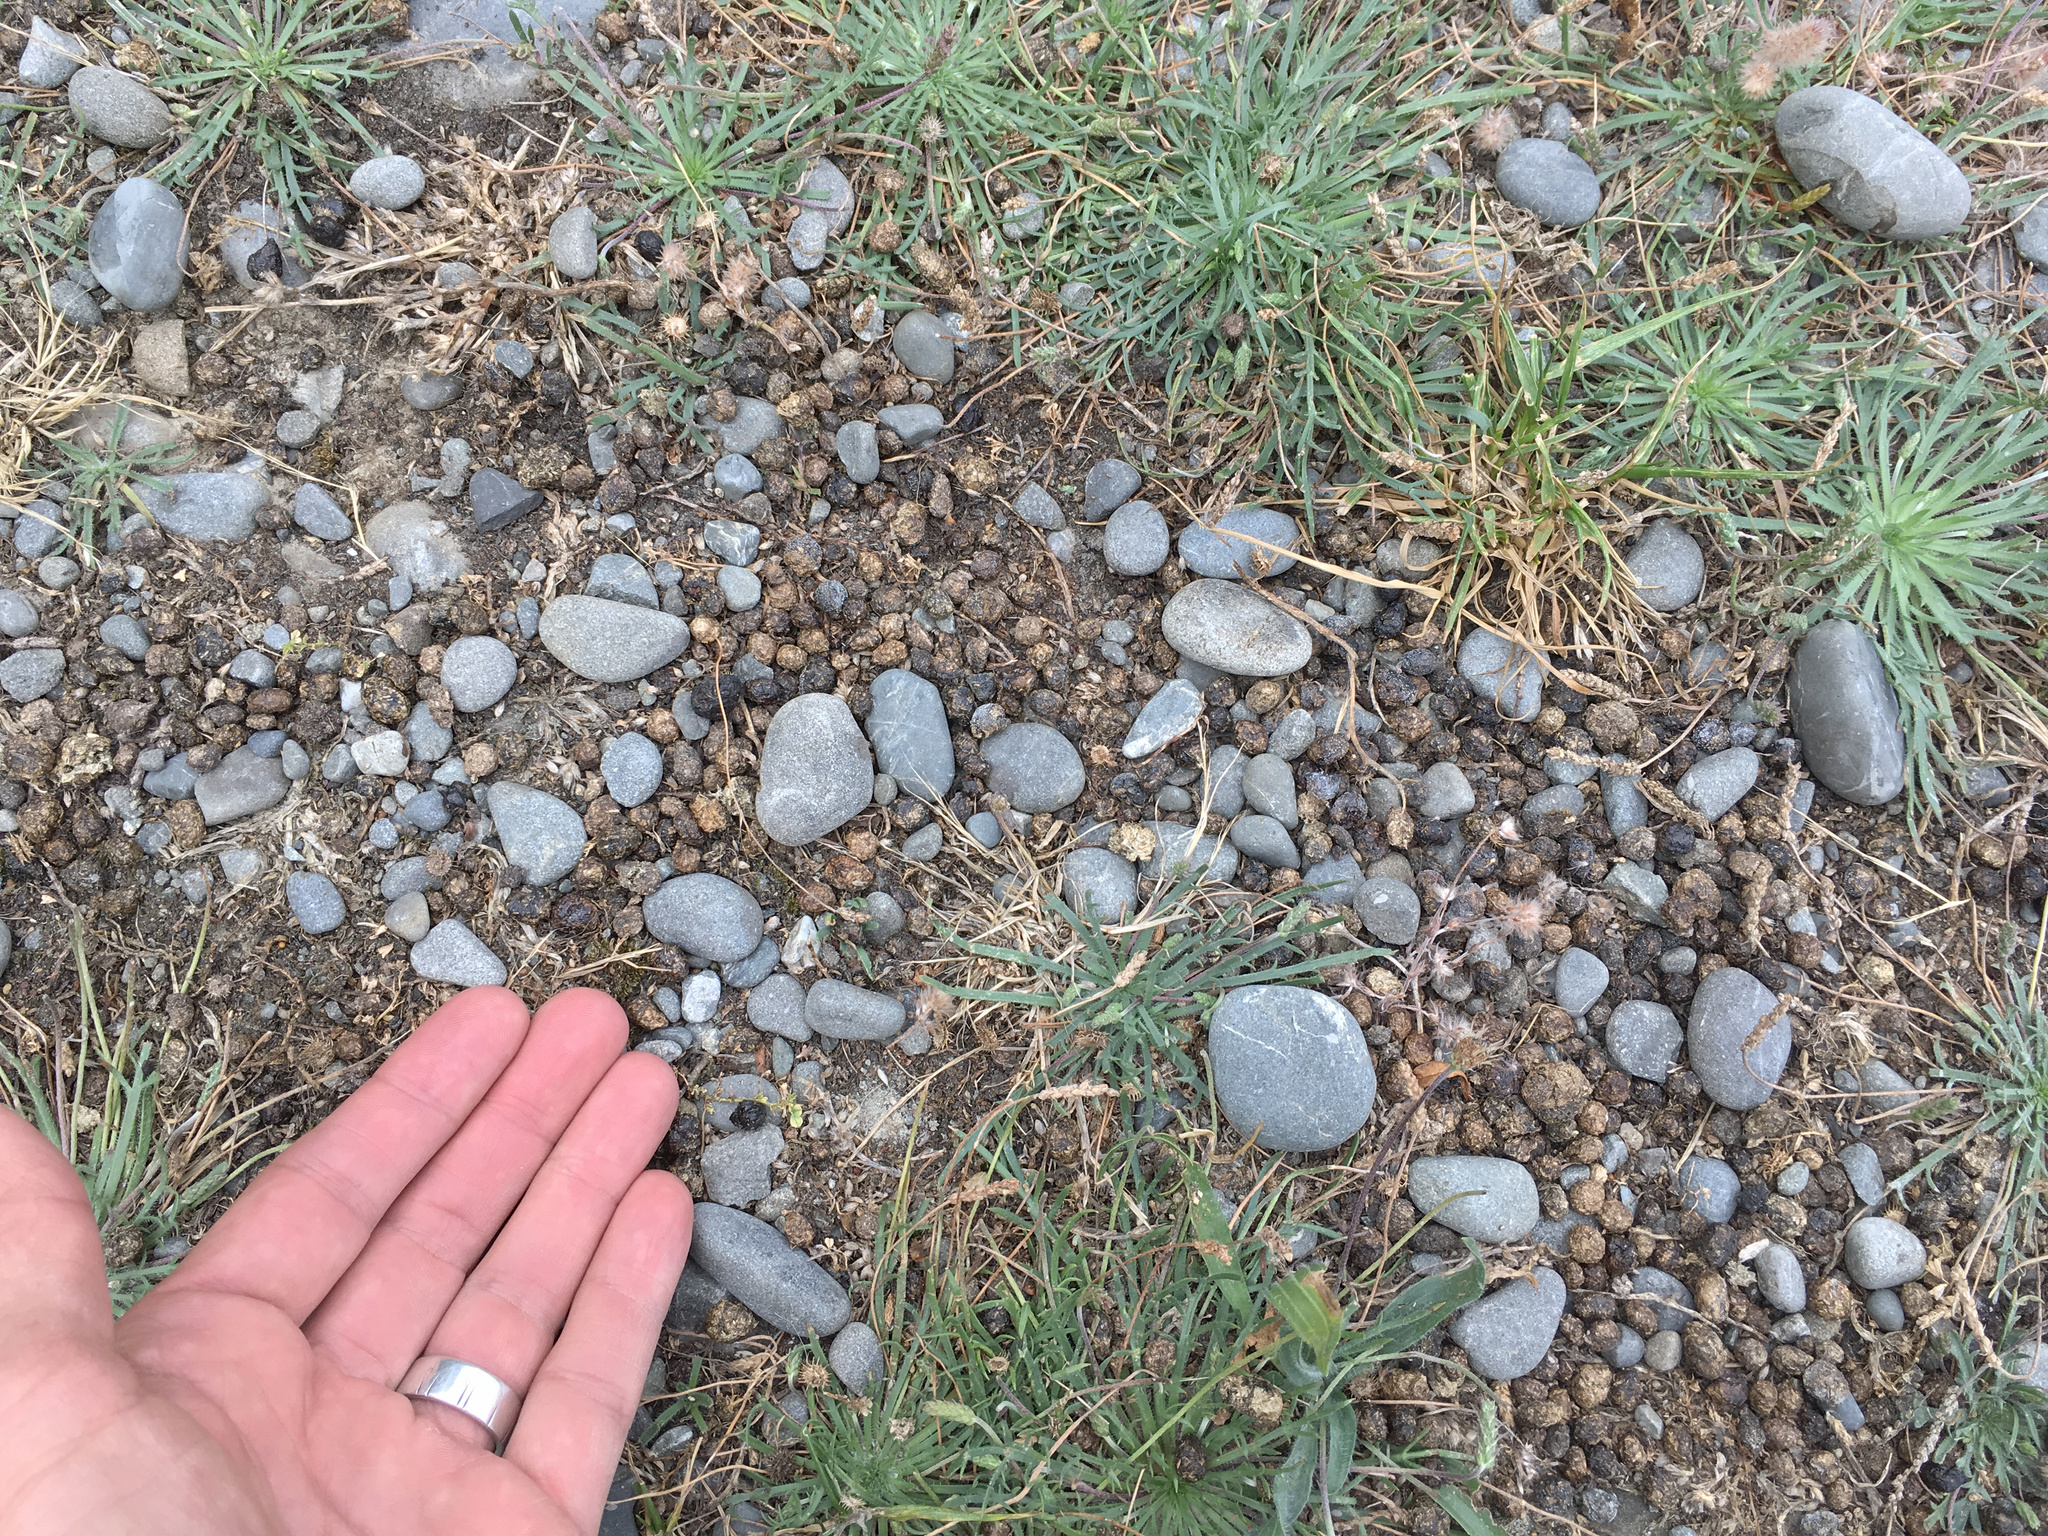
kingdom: Animalia
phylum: Chordata
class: Mammalia
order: Lagomorpha
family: Leporidae
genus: Oryctolagus
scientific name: Oryctolagus cuniculus
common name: European rabbit
